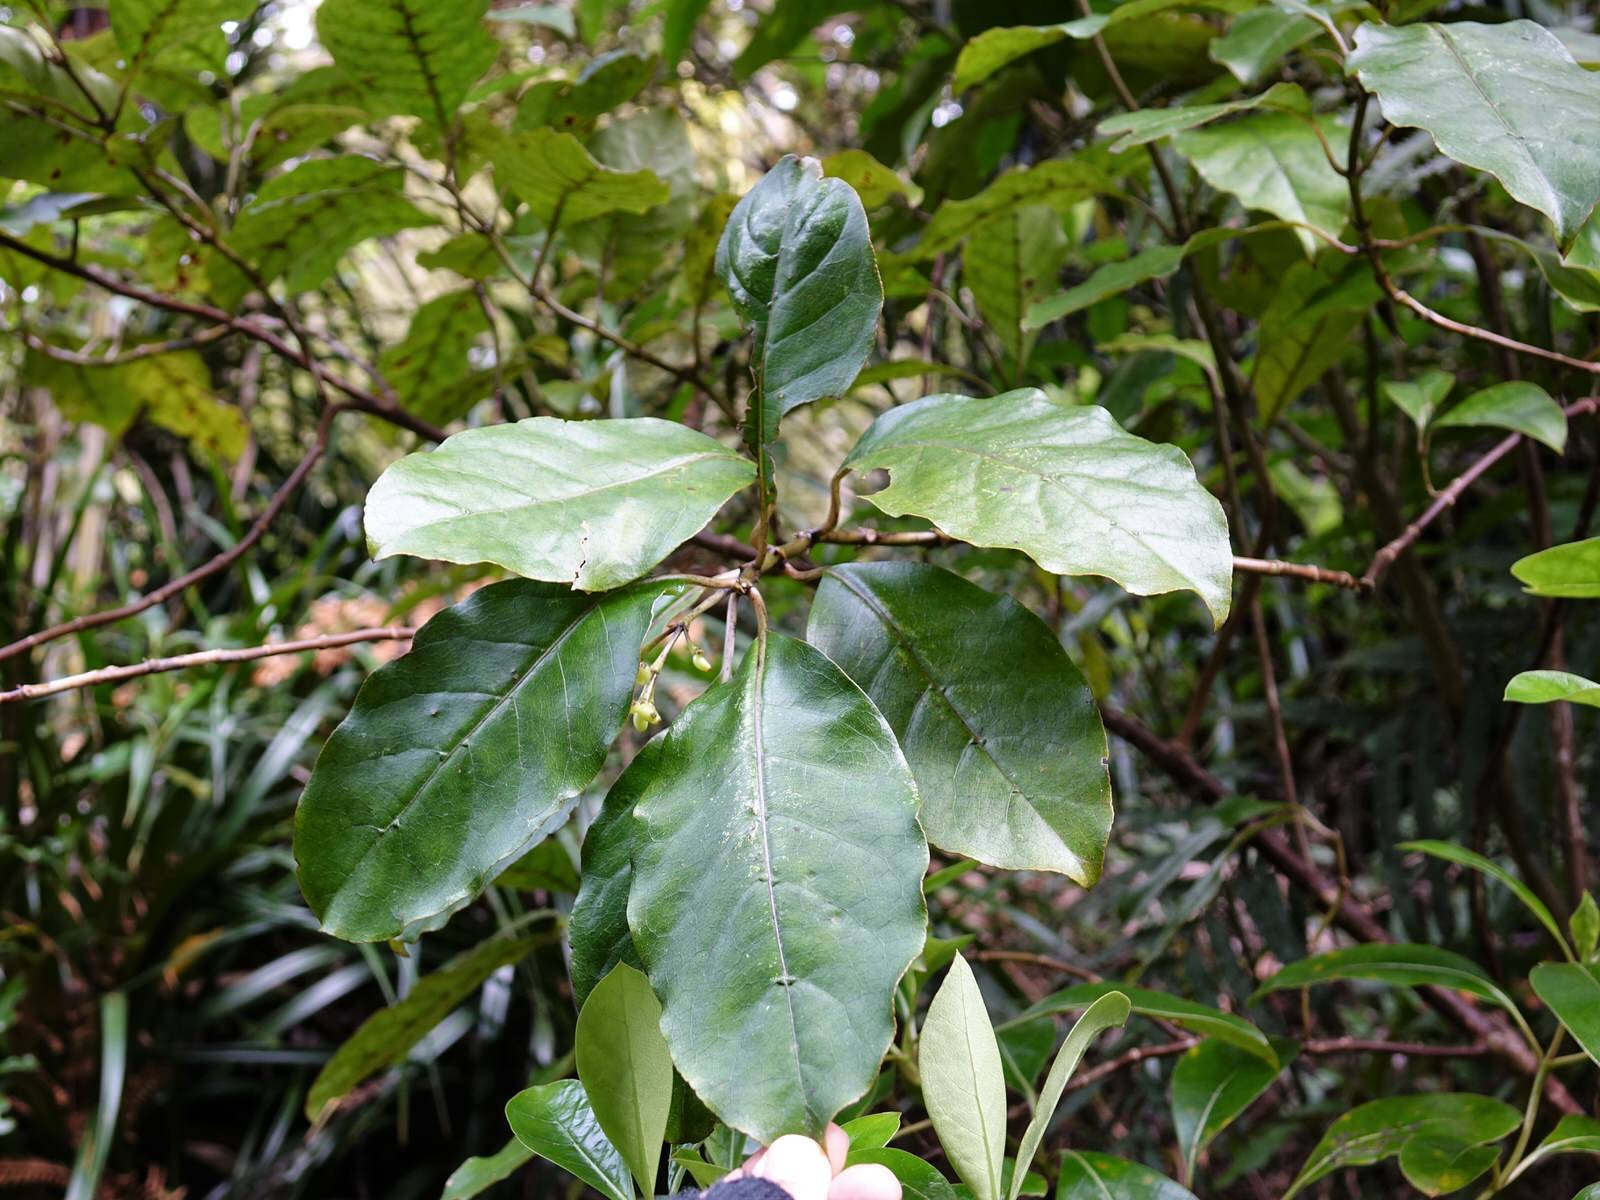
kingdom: Plantae
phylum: Tracheophyta
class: Magnoliopsida
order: Gentianales
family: Rubiaceae
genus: Coprosma
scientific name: Coprosma autumnalis
